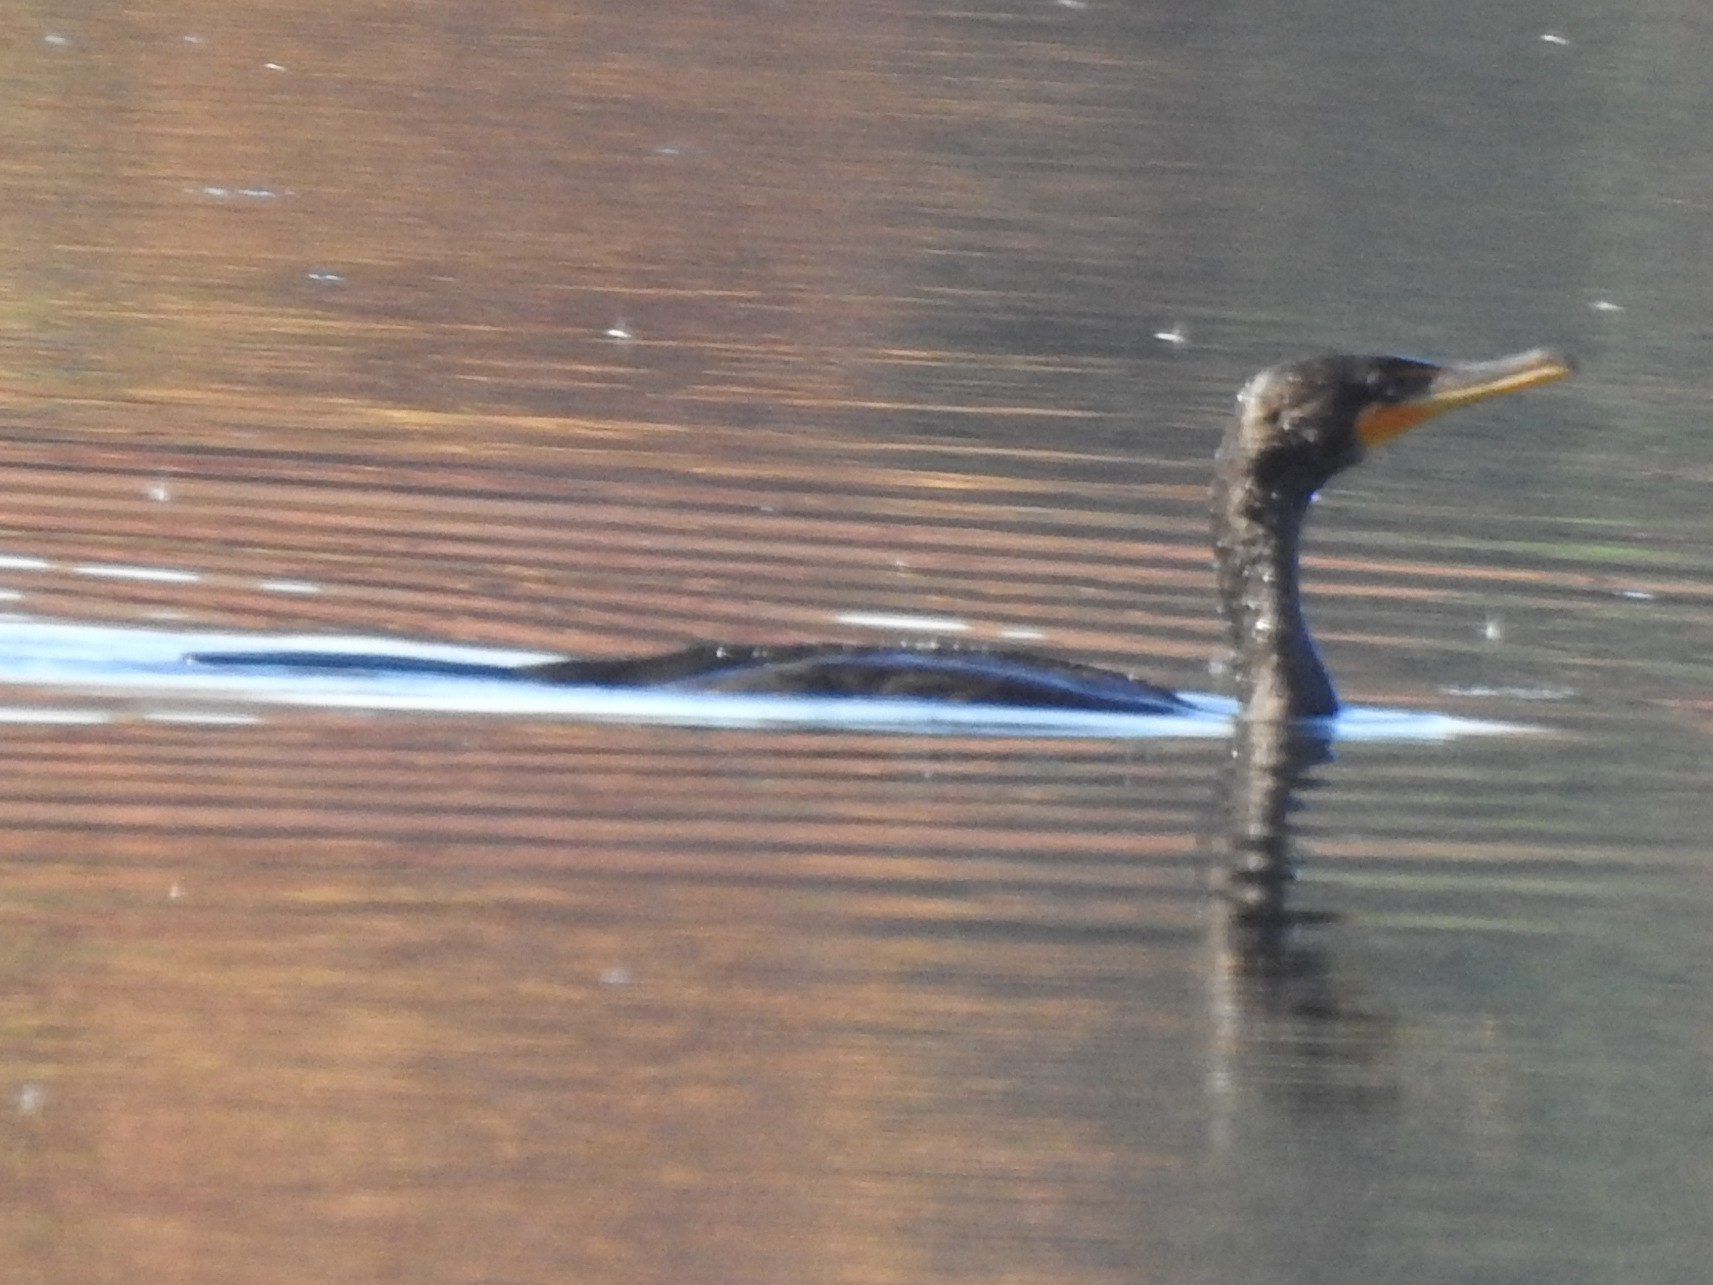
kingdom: Animalia
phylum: Chordata
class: Aves
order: Suliformes
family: Phalacrocoracidae
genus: Phalacrocorax
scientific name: Phalacrocorax auritus
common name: Double-crested cormorant
